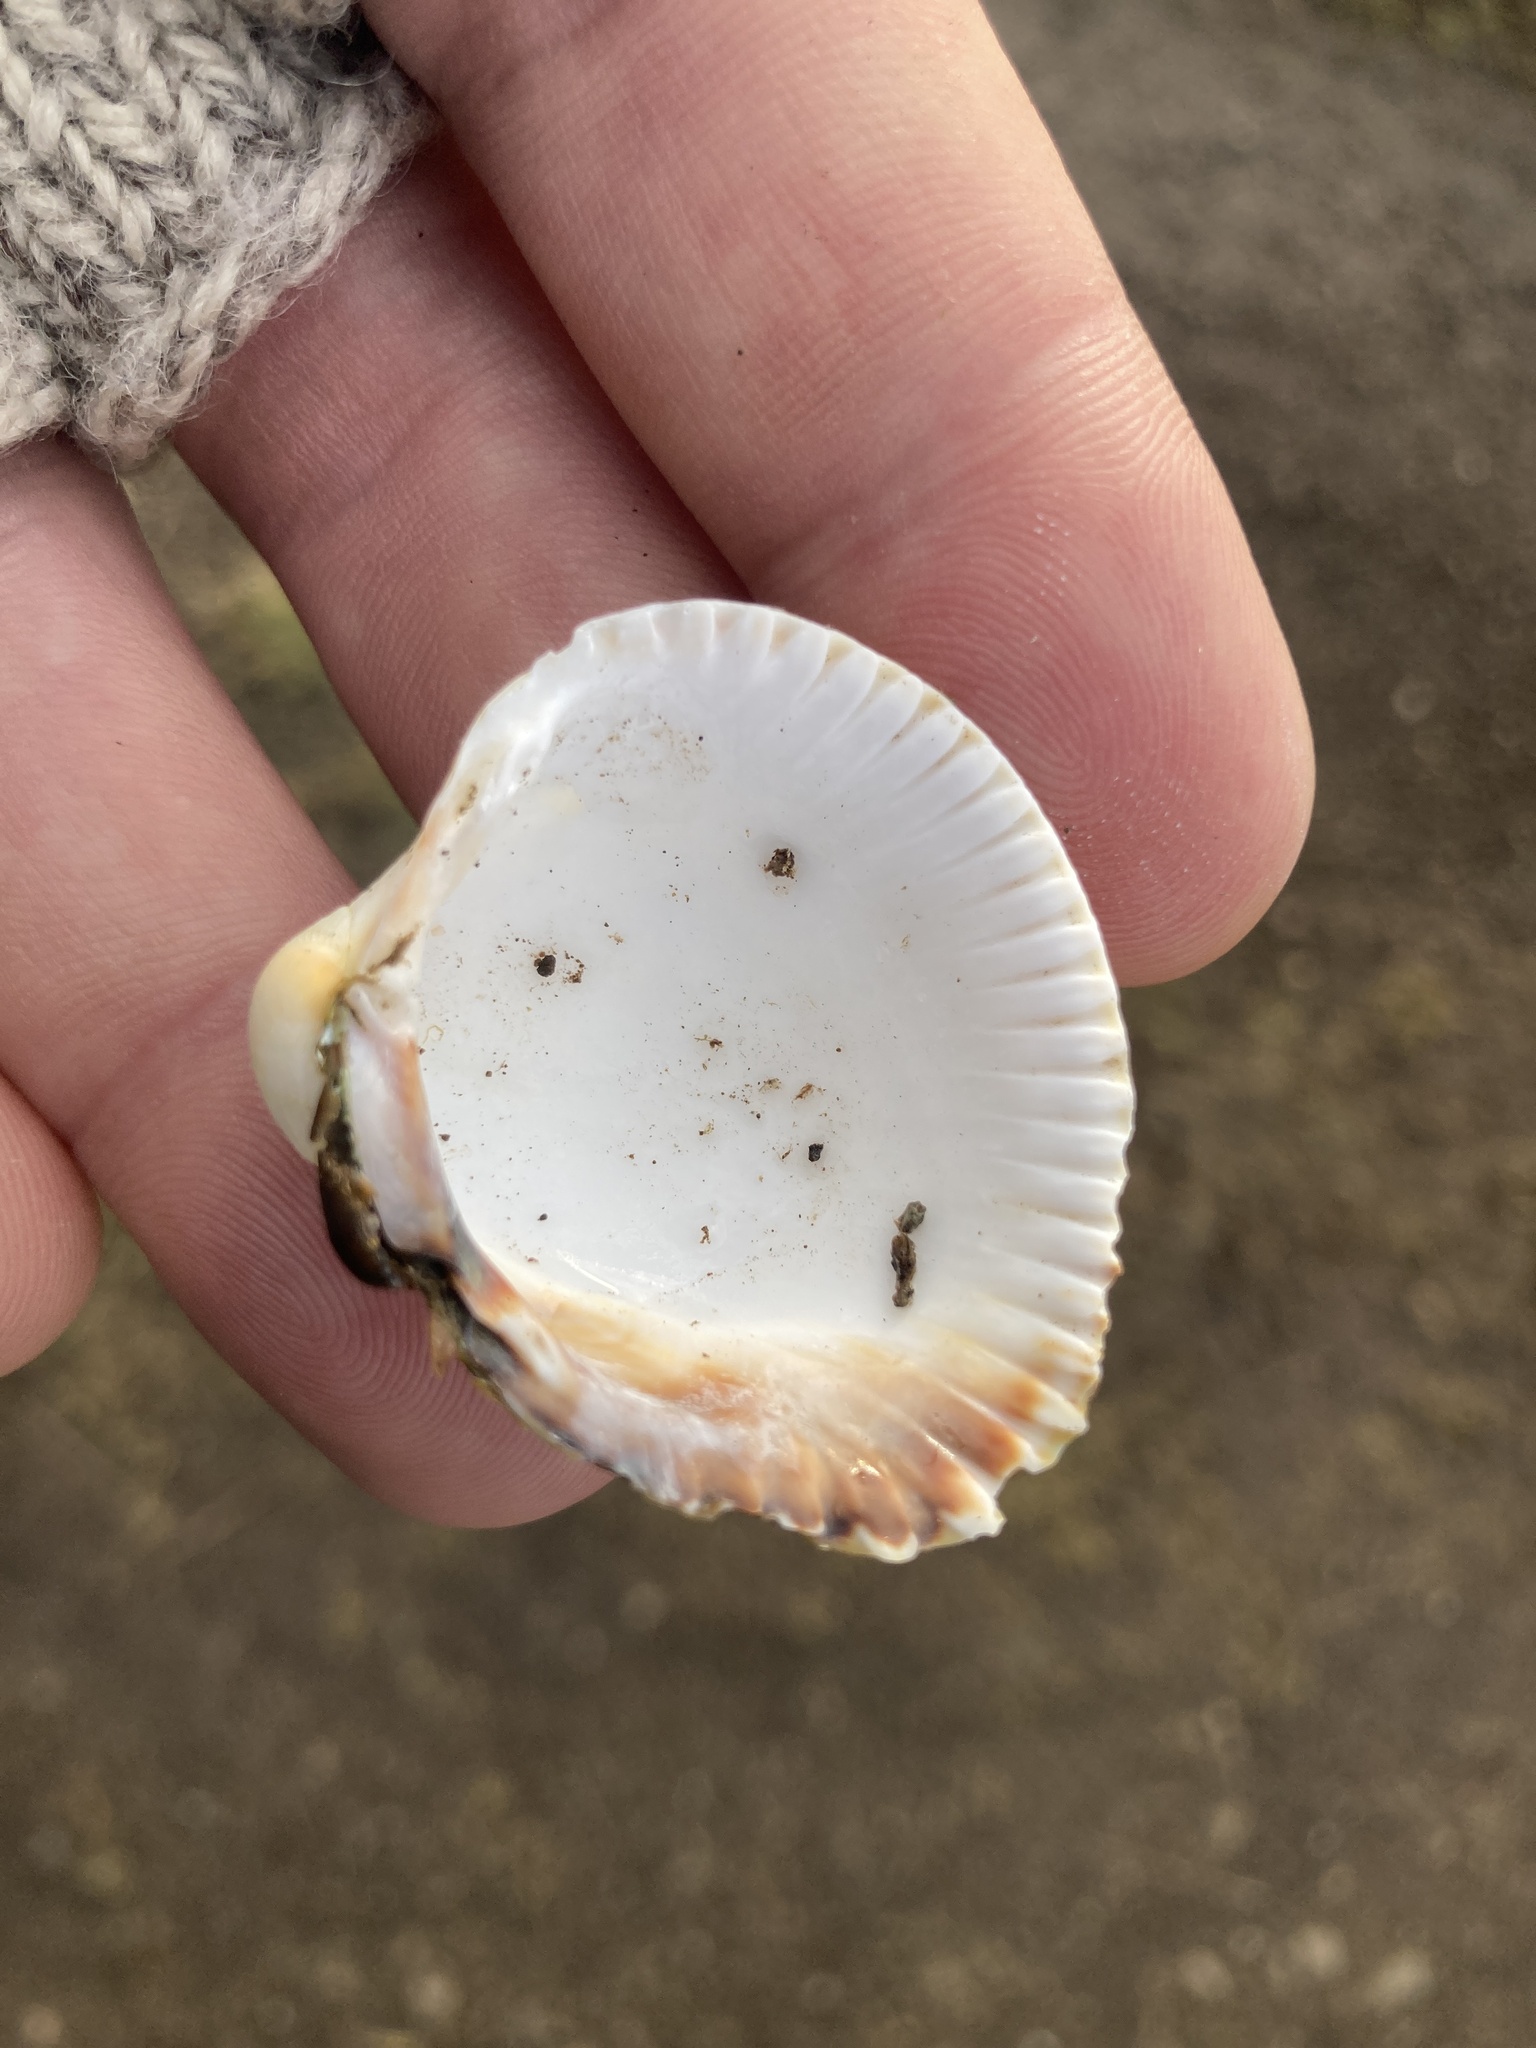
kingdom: Animalia
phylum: Mollusca
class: Bivalvia
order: Cardiida
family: Cardiidae
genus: Cerastoderma
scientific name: Cerastoderma edule
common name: Common cockle
